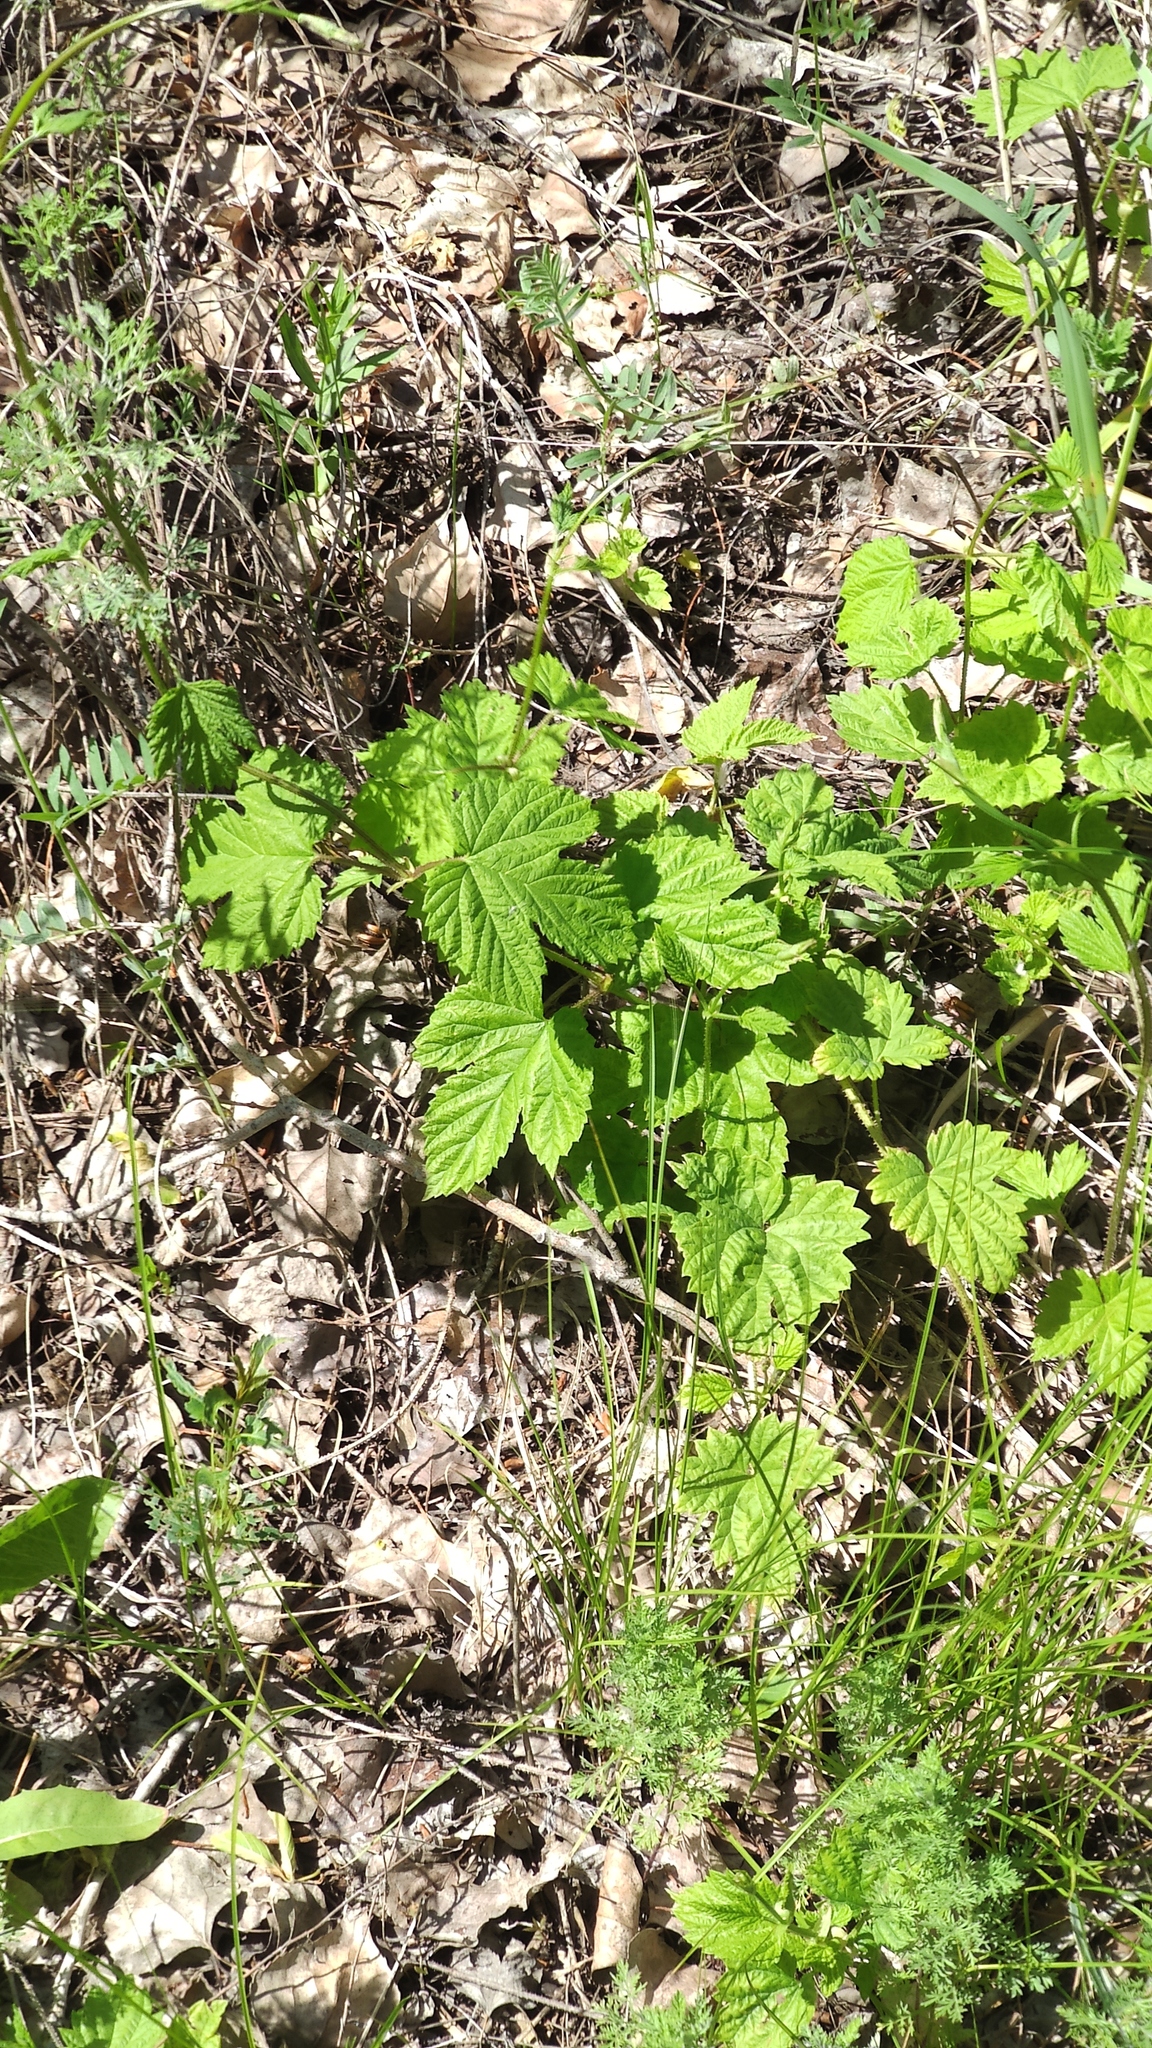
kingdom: Plantae
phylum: Tracheophyta
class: Magnoliopsida
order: Rosales
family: Cannabaceae
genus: Humulus
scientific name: Humulus lupulus
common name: Hop
